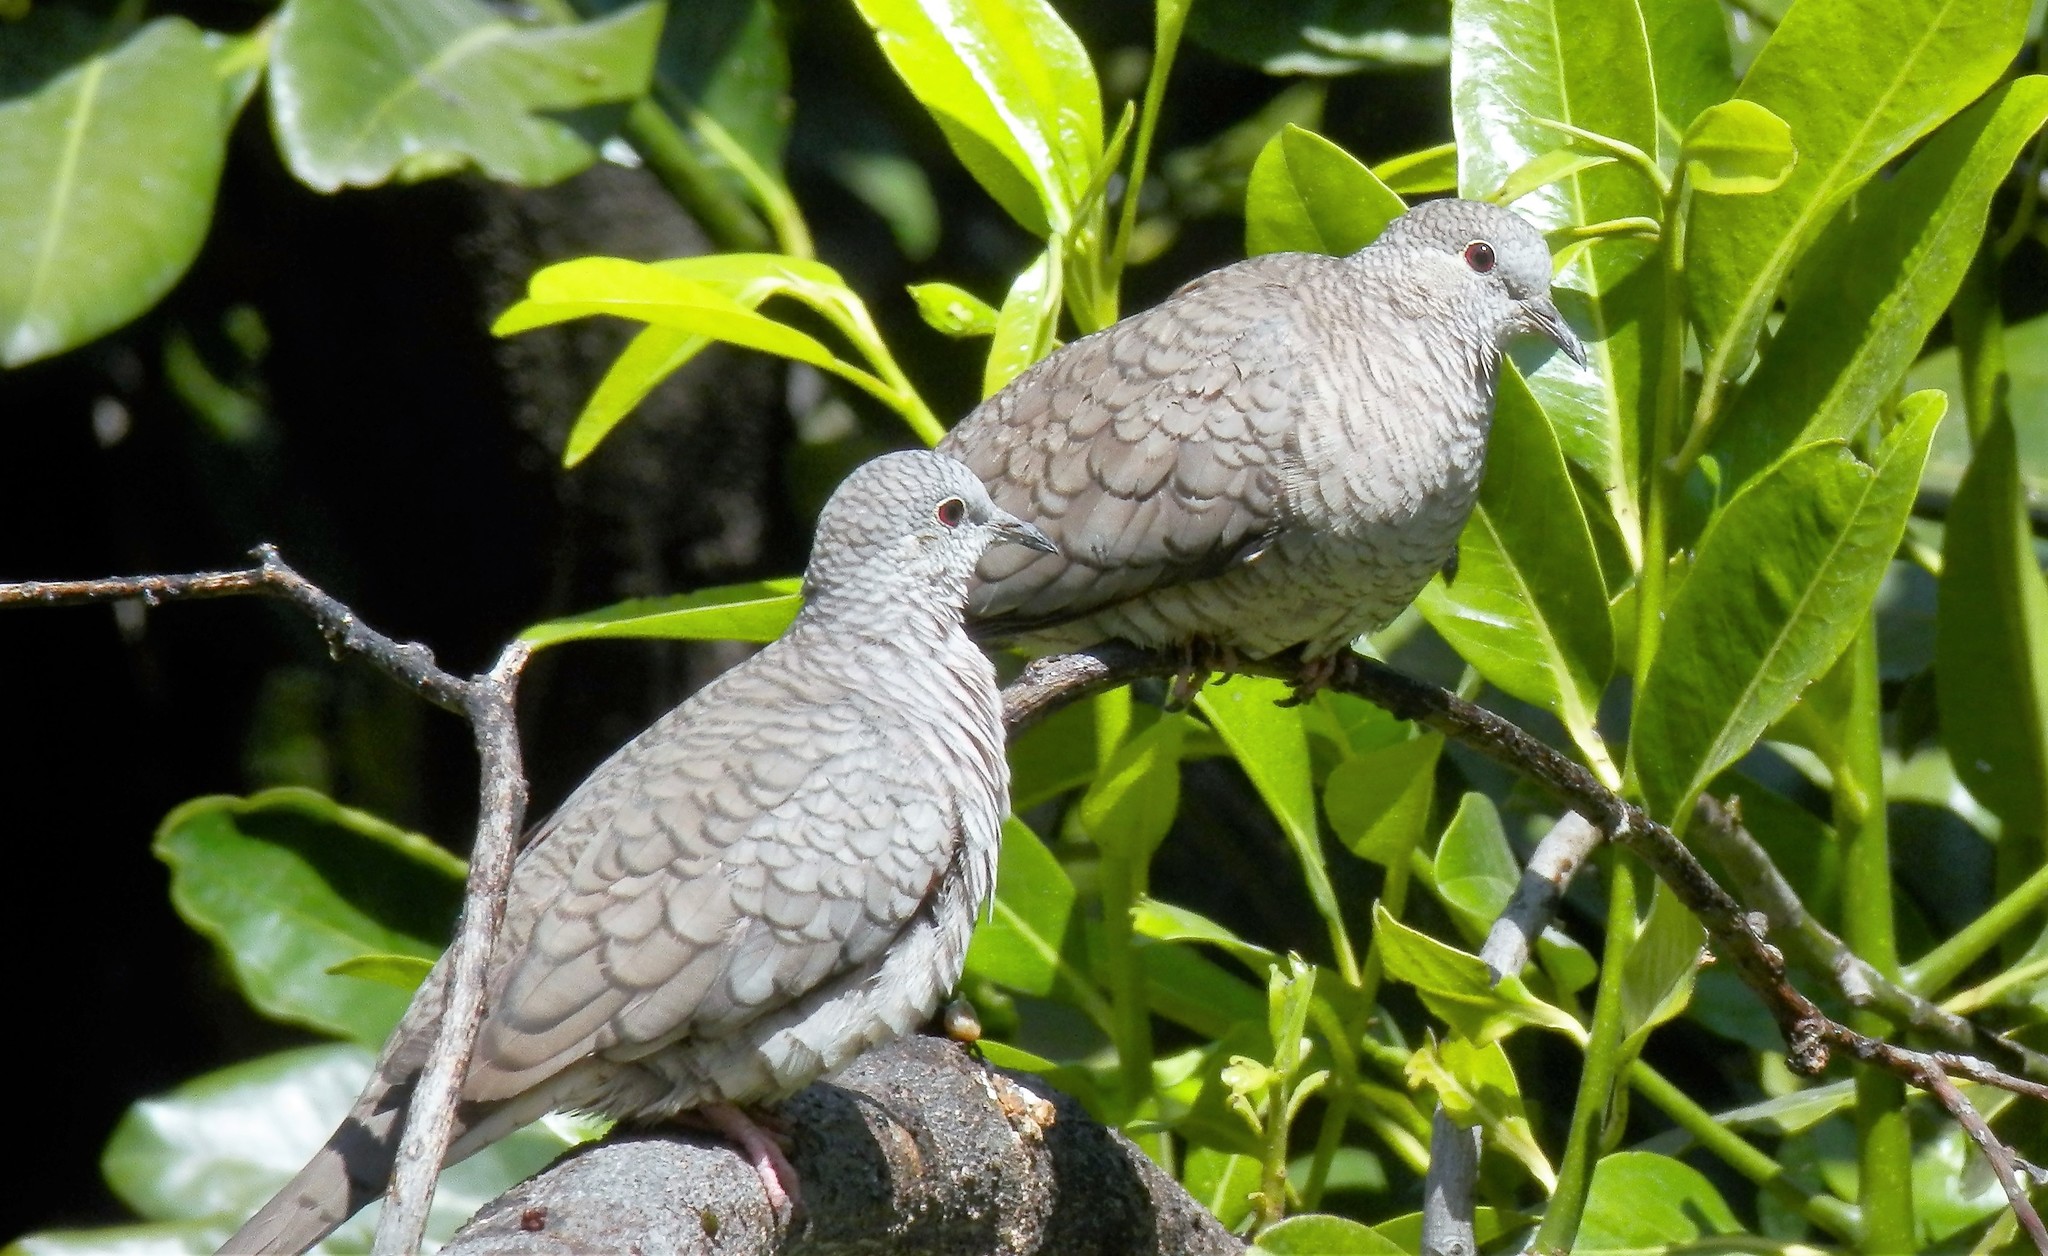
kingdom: Animalia
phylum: Chordata
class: Aves
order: Columbiformes
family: Columbidae
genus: Columbina
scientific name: Columbina inca
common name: Inca dove
